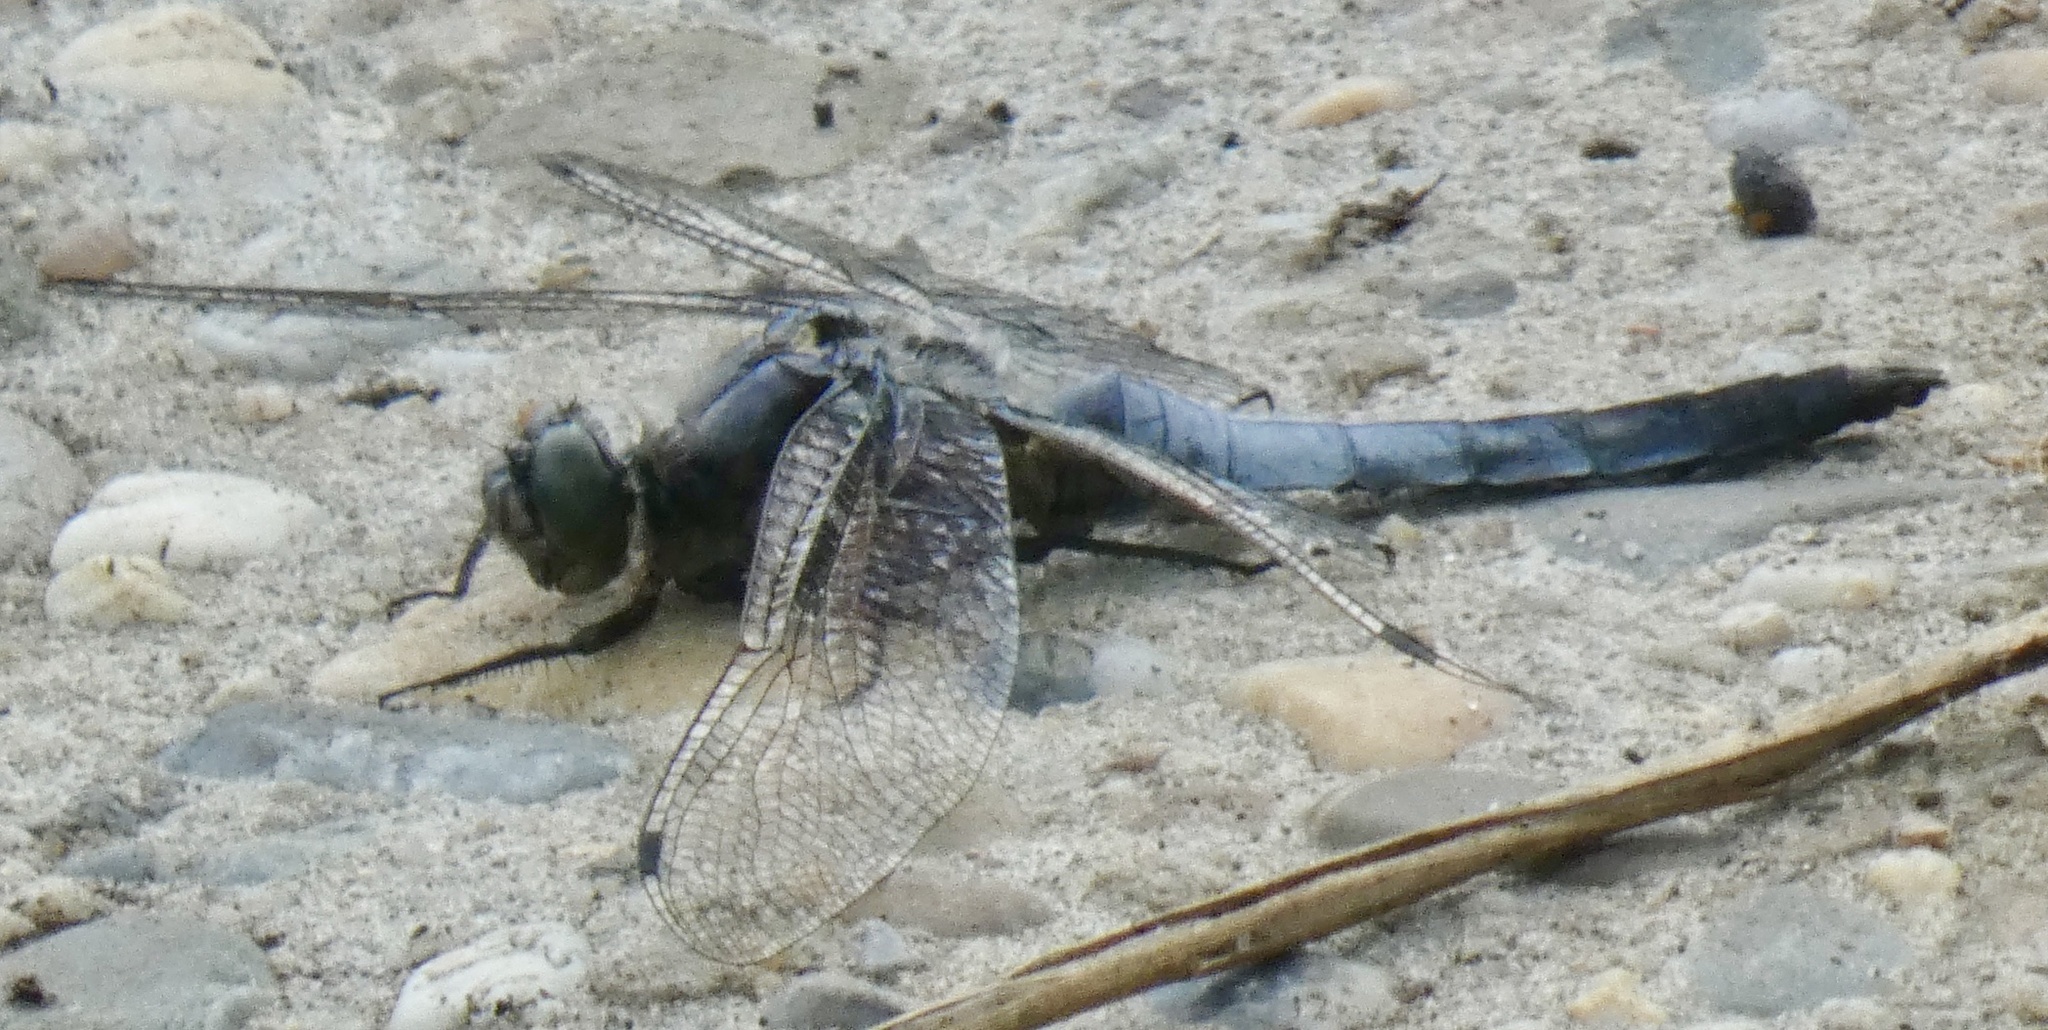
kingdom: Animalia
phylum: Arthropoda
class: Insecta
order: Odonata
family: Libellulidae
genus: Orthetrum
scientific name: Orthetrum cancellatum
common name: Black-tailed skimmer
